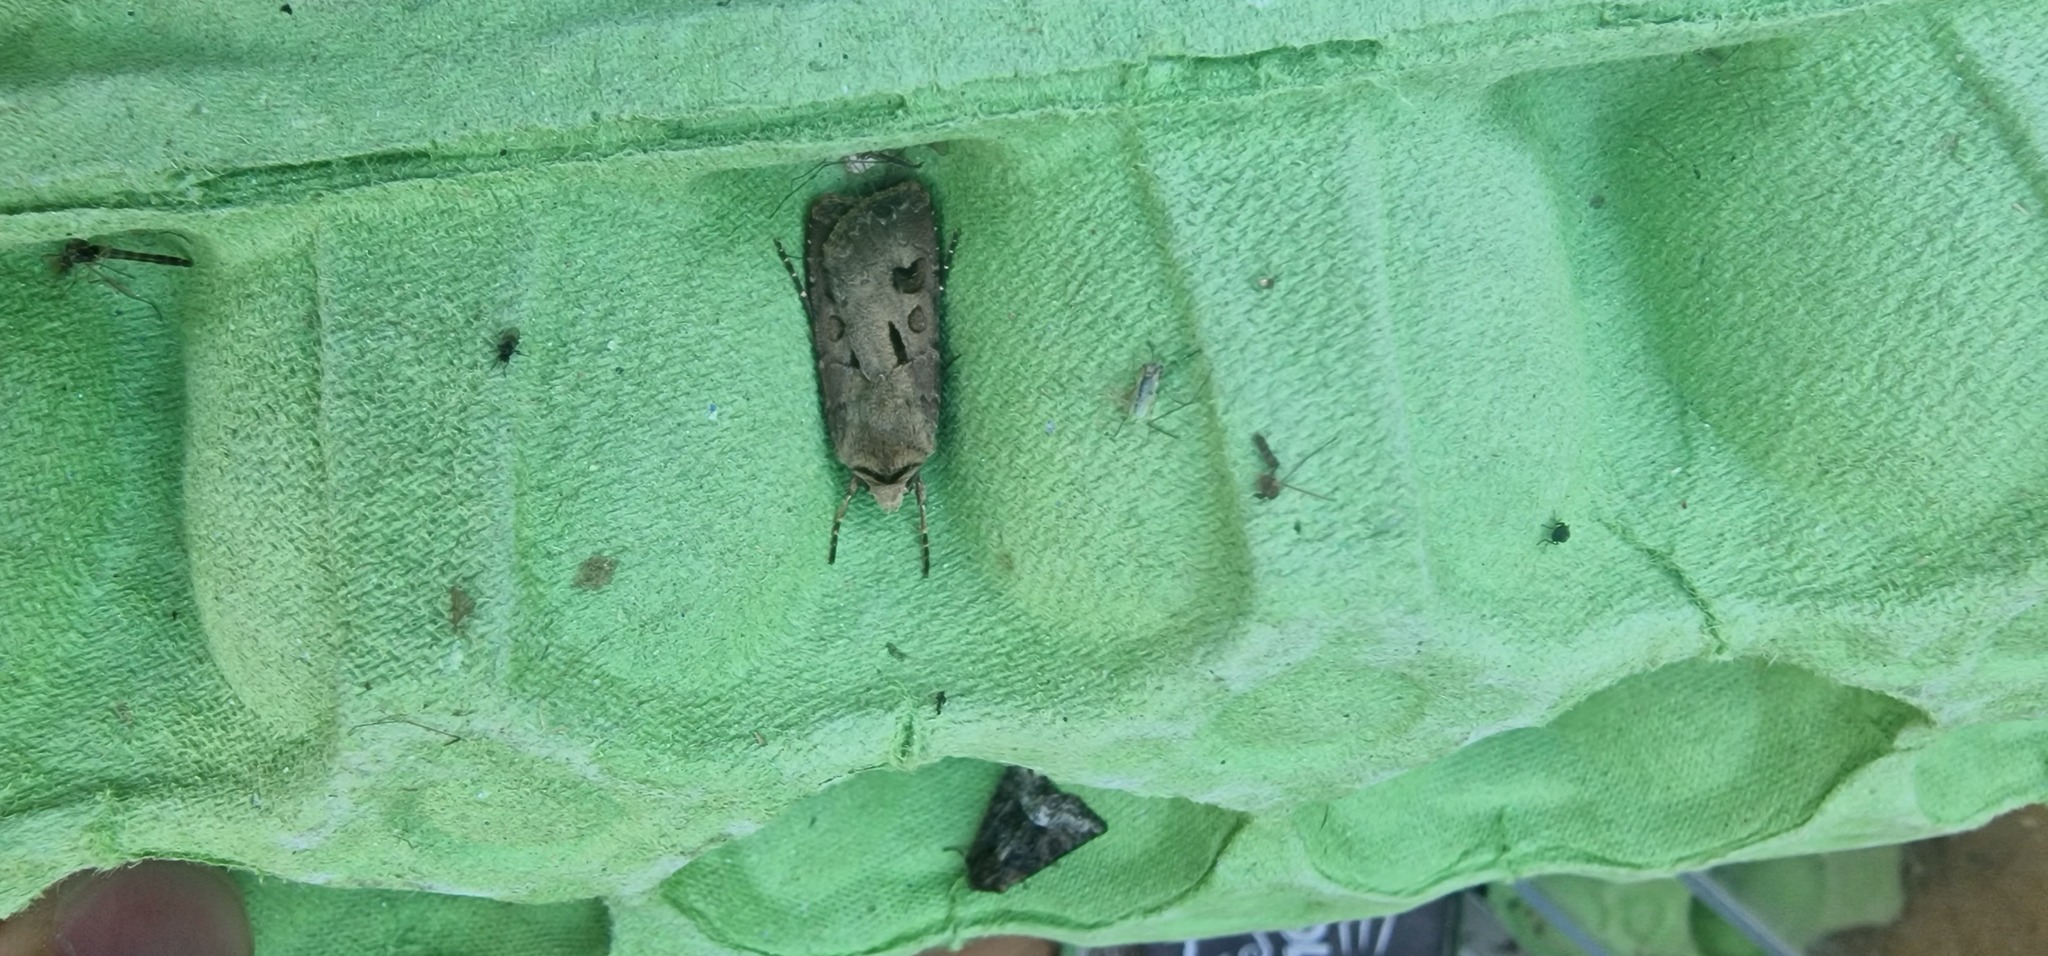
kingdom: Animalia
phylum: Arthropoda
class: Insecta
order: Lepidoptera
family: Noctuidae
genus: Agrotis
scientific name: Agrotis exclamationis
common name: Heart and dart
